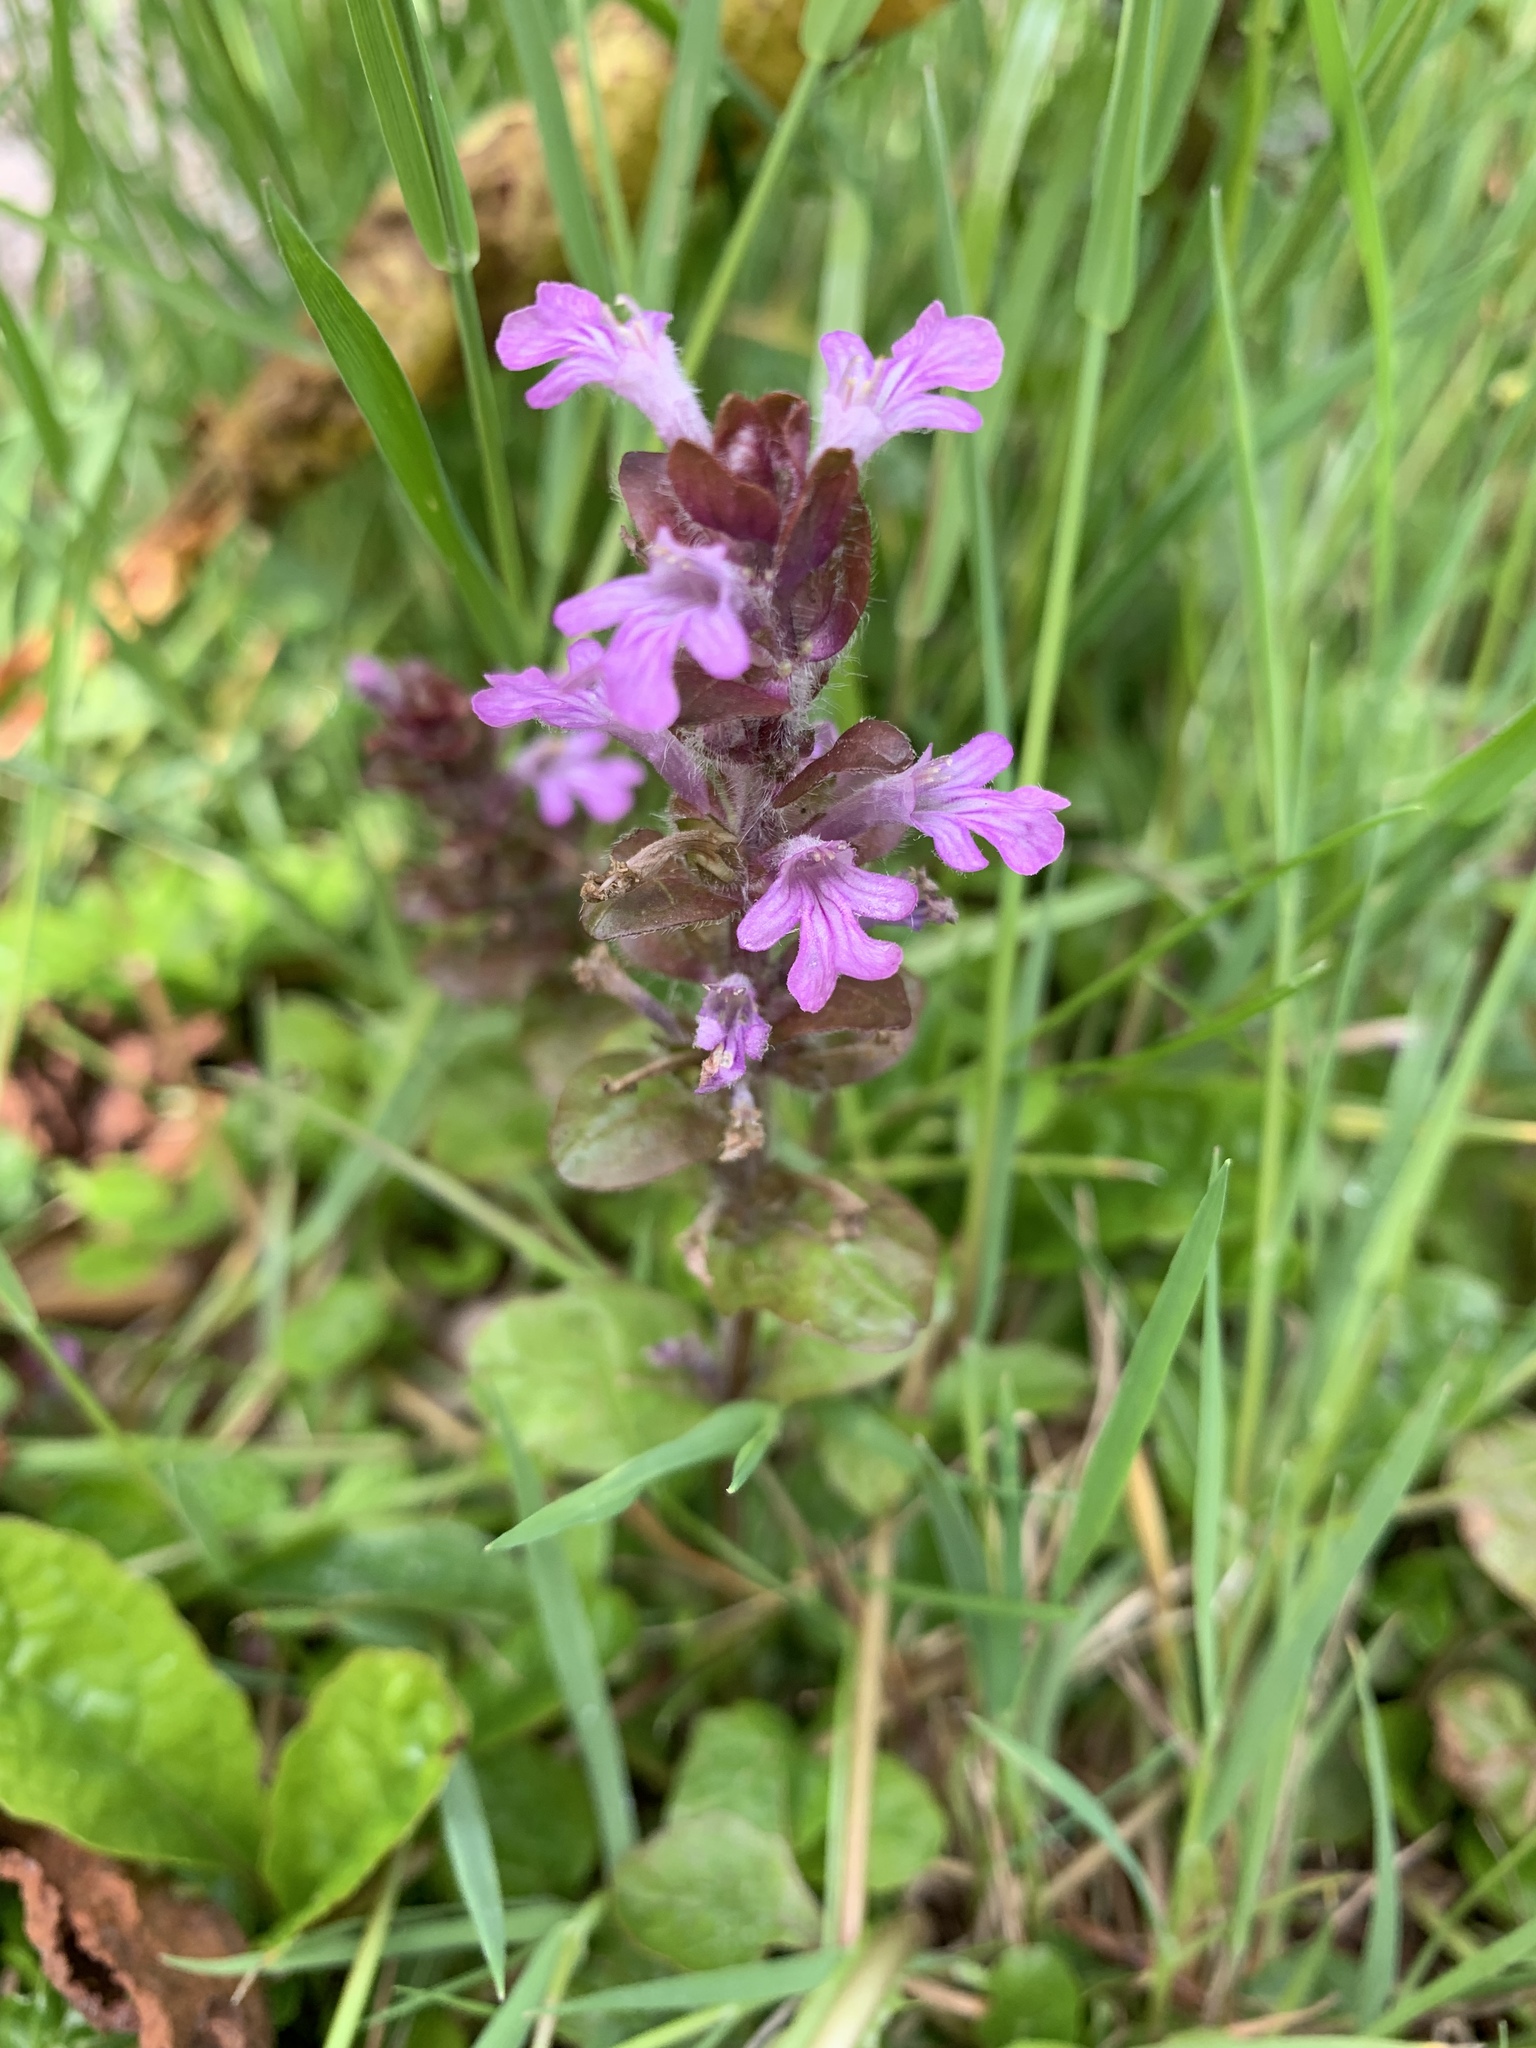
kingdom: Plantae
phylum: Tracheophyta
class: Magnoliopsida
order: Lamiales
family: Lamiaceae
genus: Ajuga
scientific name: Ajuga reptans
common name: Bugle
